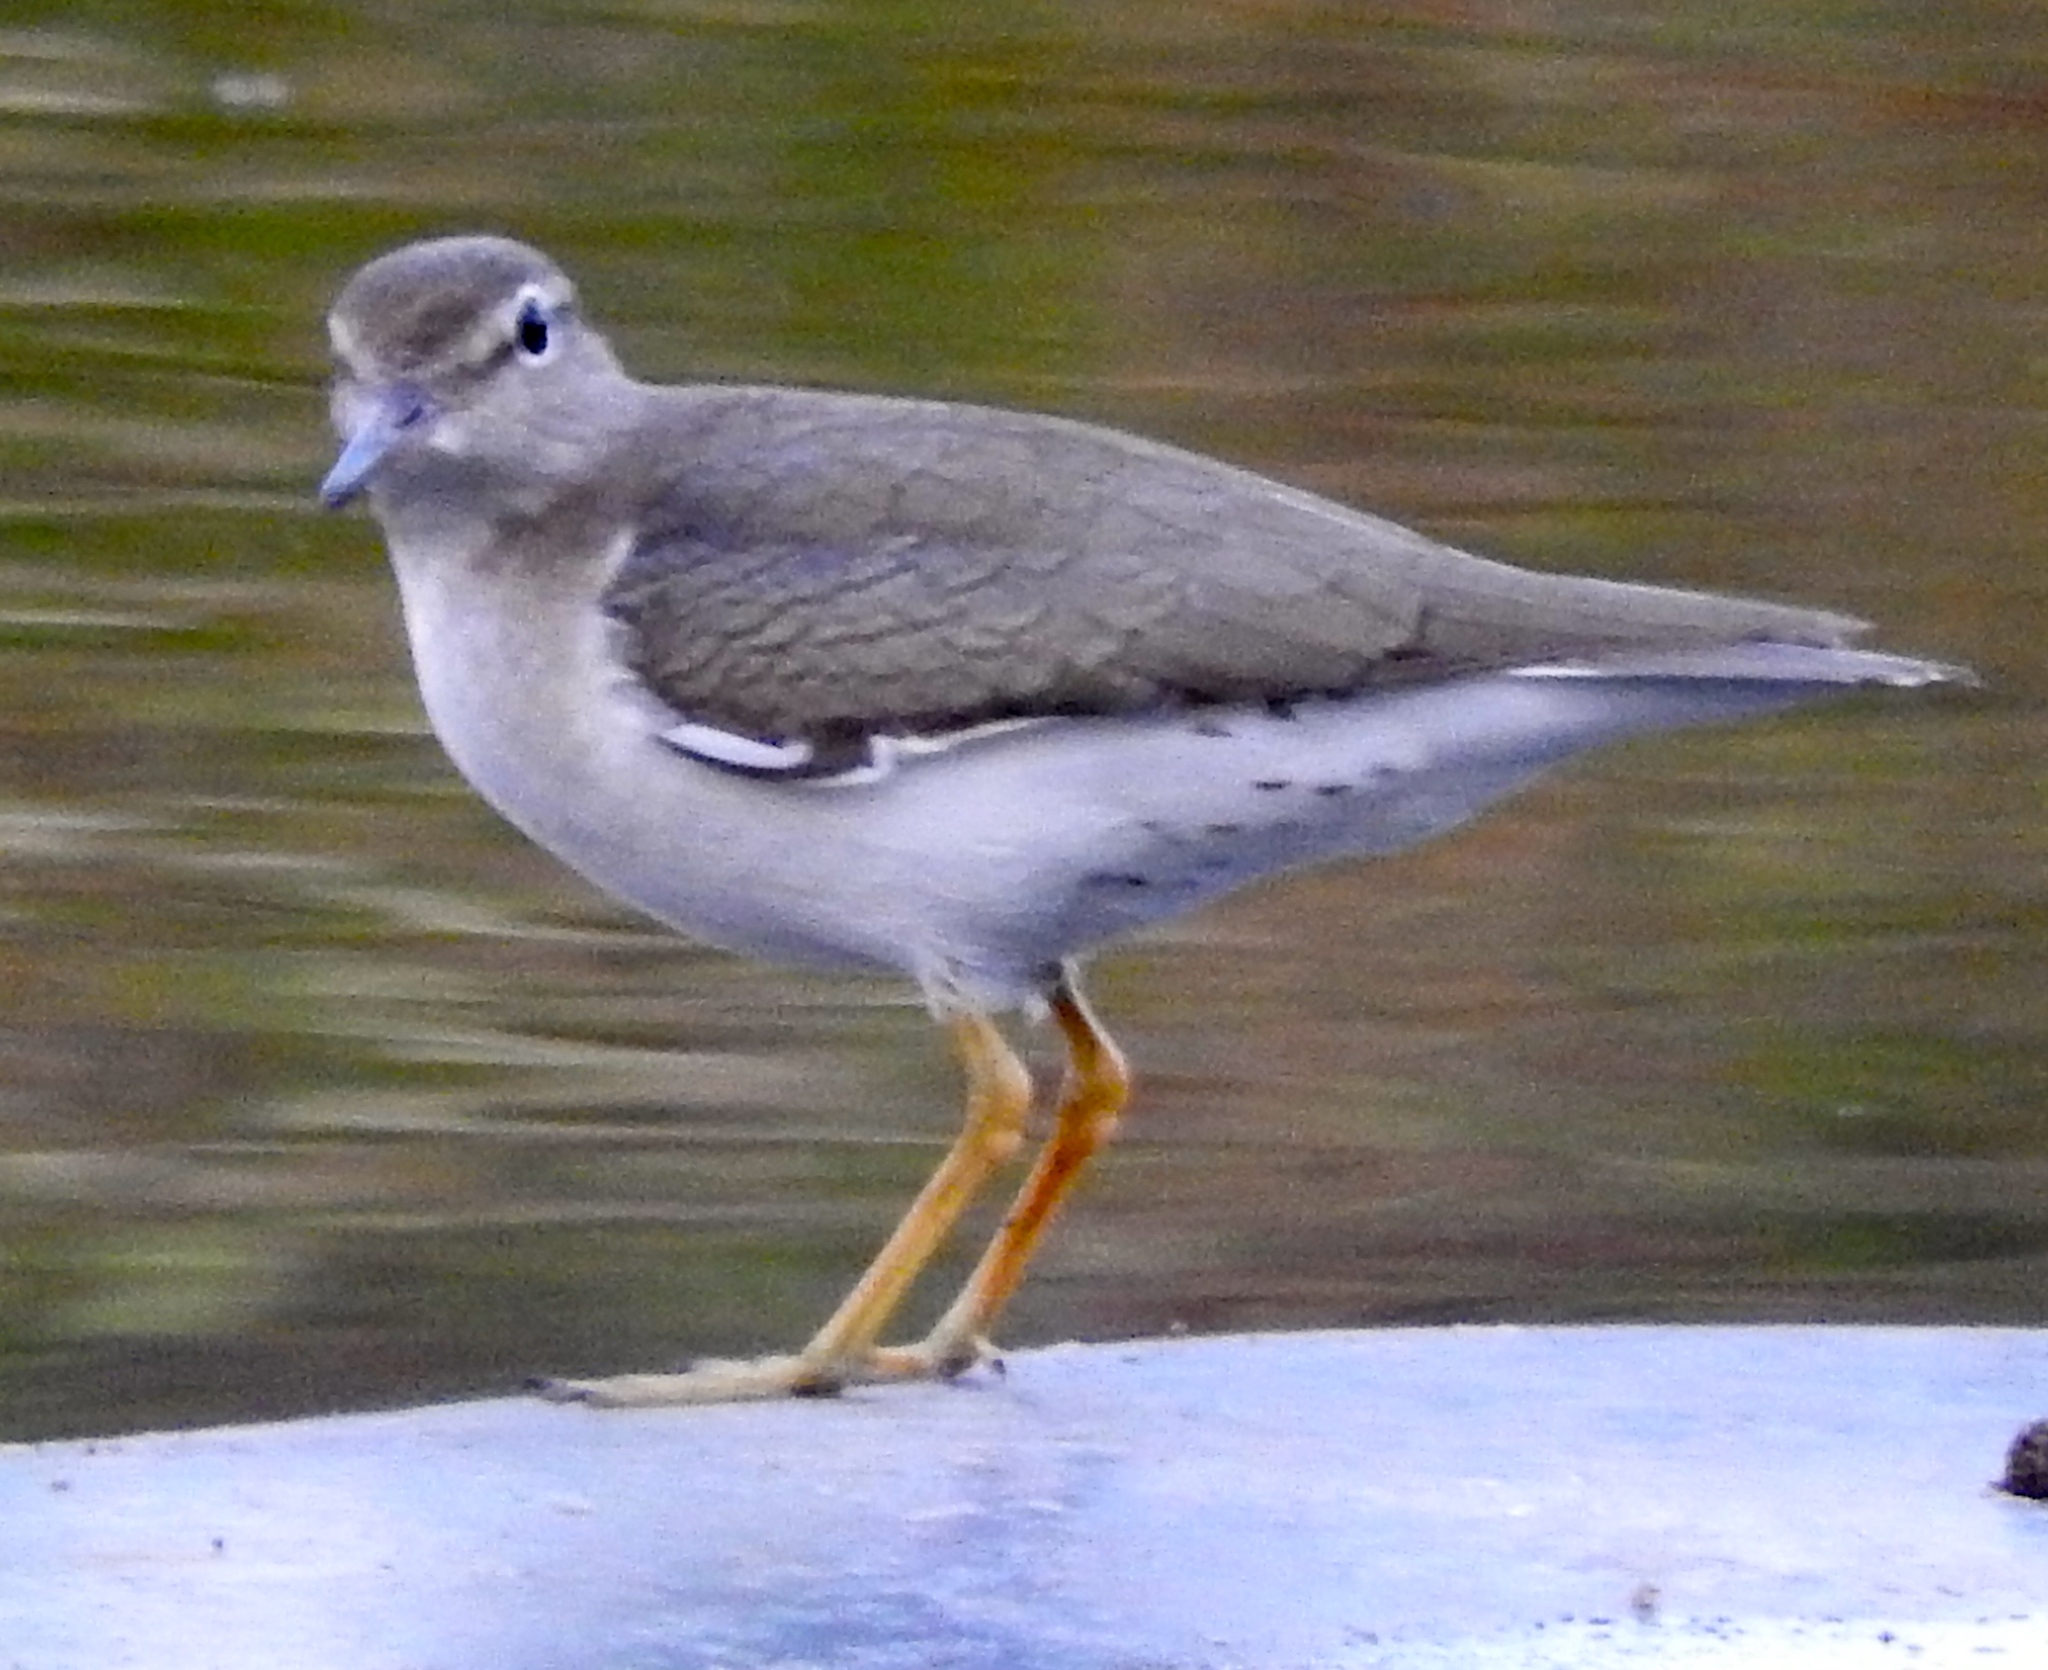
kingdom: Animalia
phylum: Chordata
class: Aves
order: Charadriiformes
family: Scolopacidae
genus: Actitis
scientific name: Actitis macularius
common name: Spotted sandpiper
